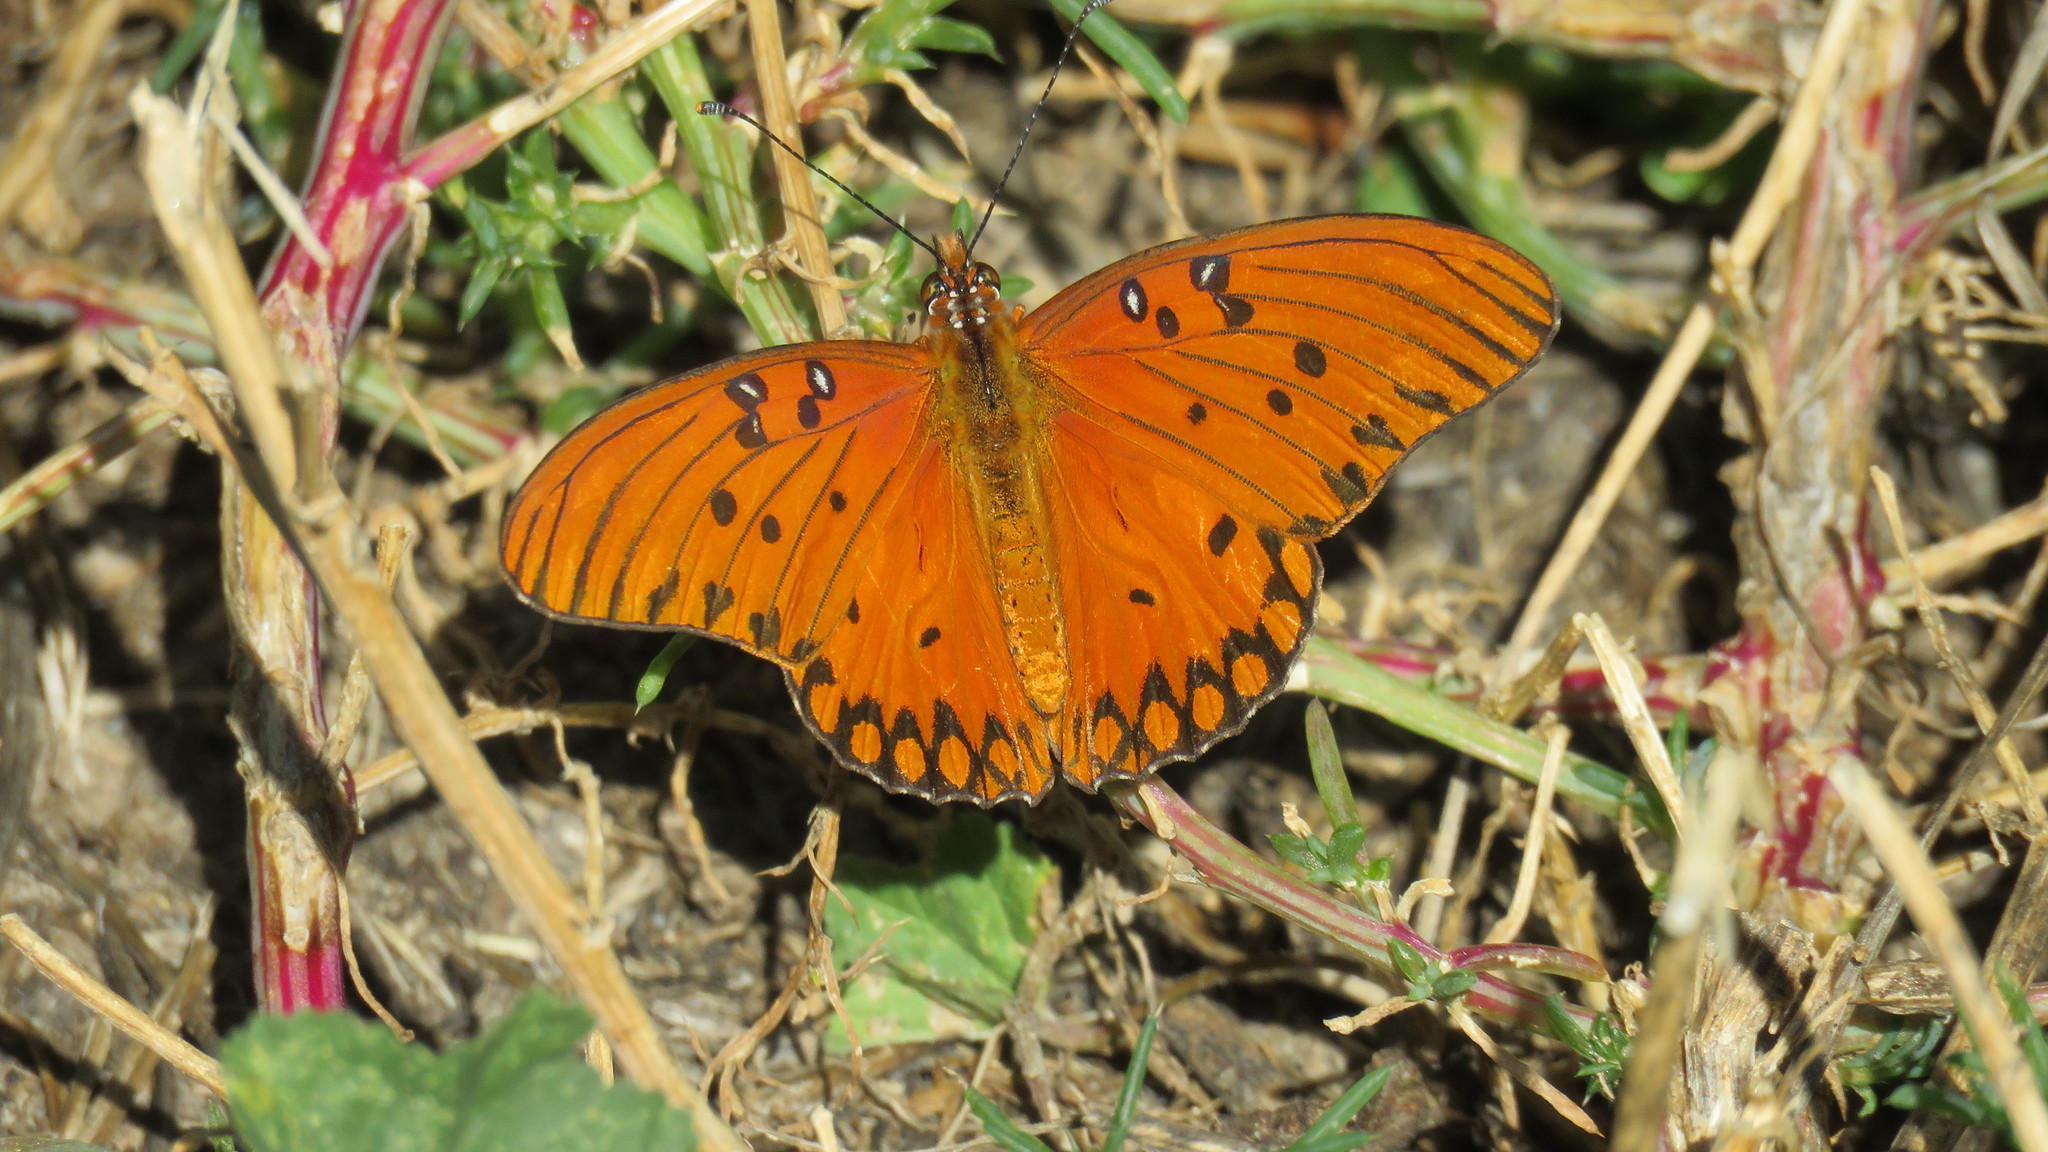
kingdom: Animalia
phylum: Arthropoda
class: Insecta
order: Lepidoptera
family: Nymphalidae
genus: Dione
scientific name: Dione vanillae
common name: Gulf fritillary
